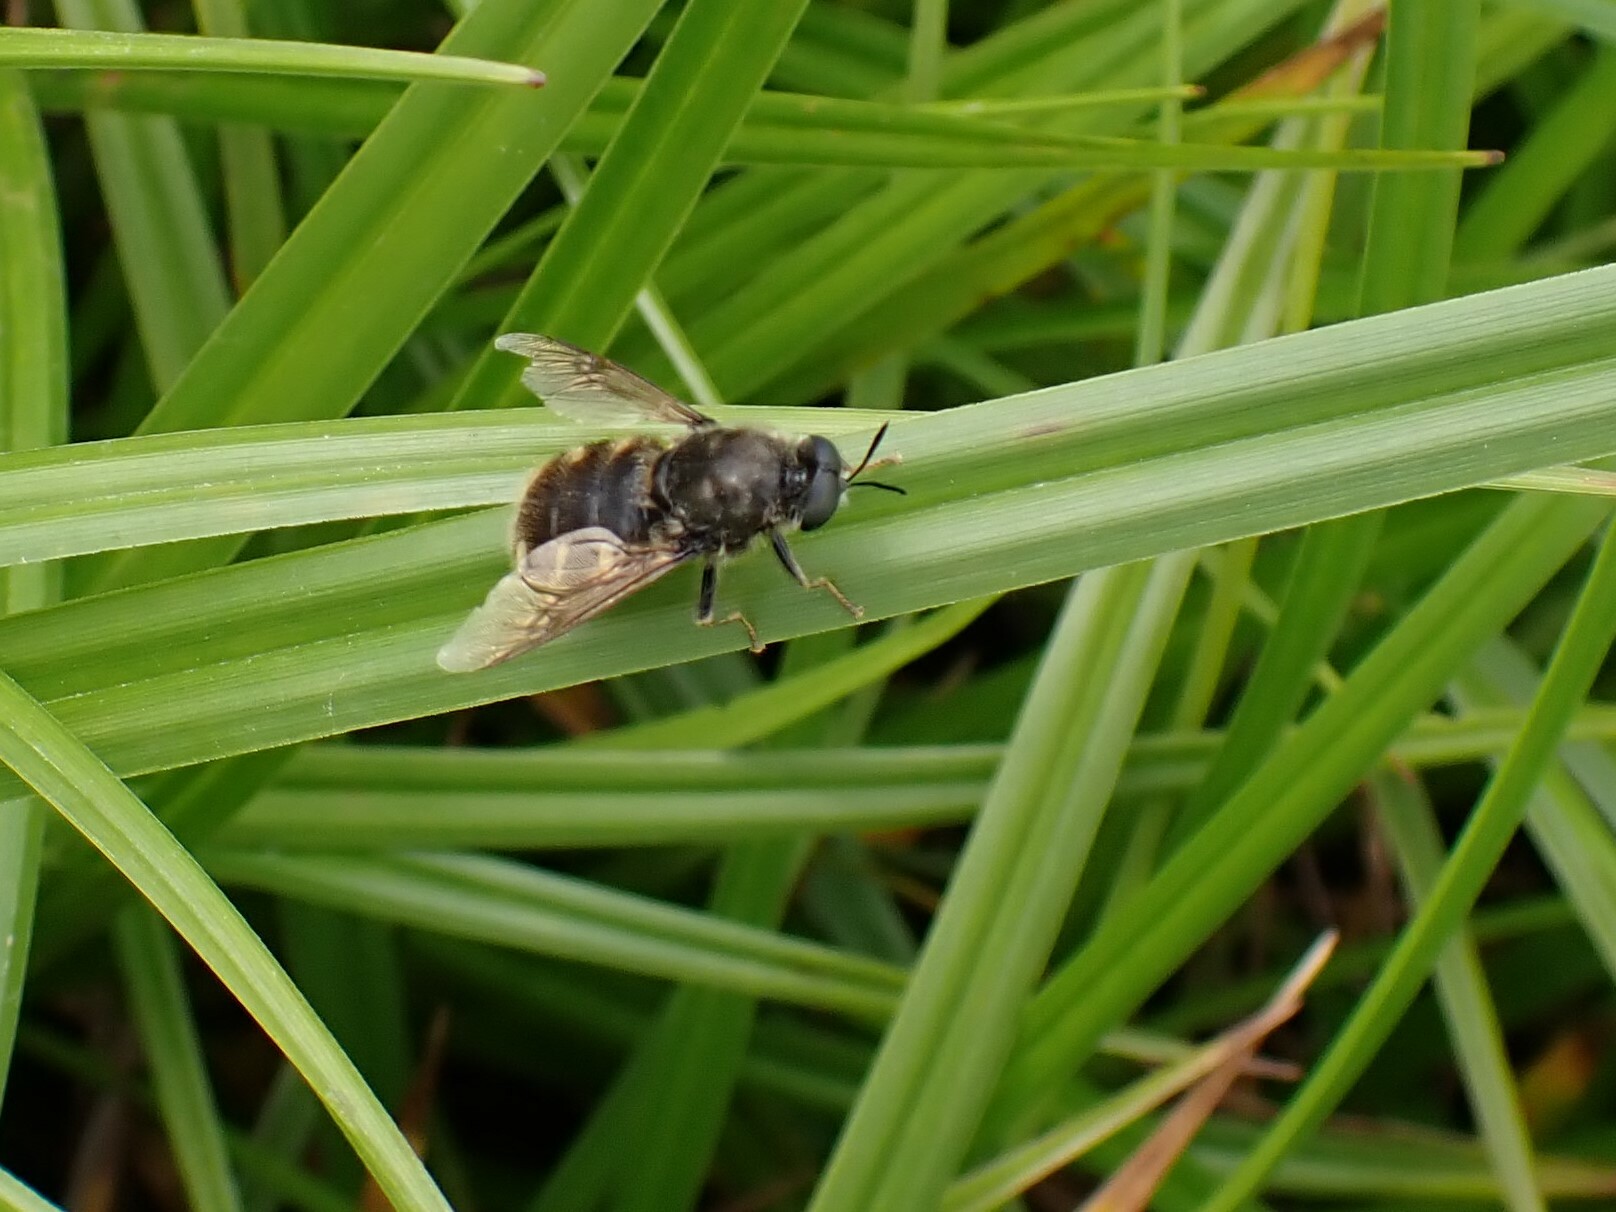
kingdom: Animalia
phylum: Arthropoda
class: Insecta
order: Diptera
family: Stratiomyidae
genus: Stratiomys
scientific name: Stratiomys singularior
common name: Flecked general
